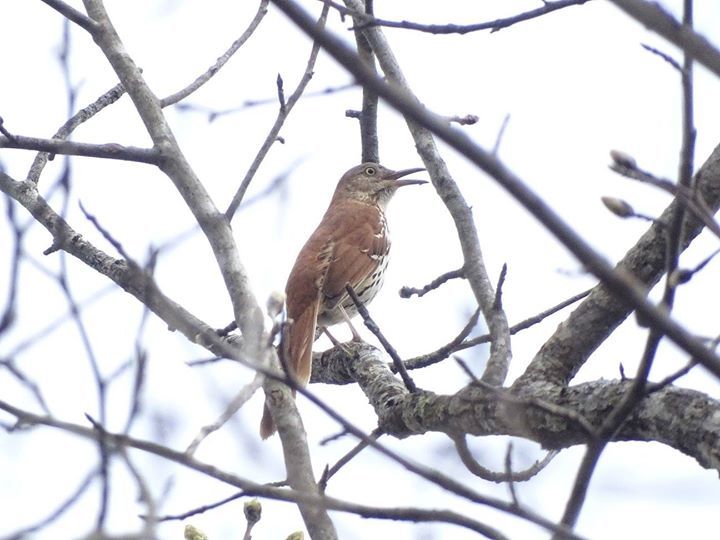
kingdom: Animalia
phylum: Chordata
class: Aves
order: Passeriformes
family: Mimidae
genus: Toxostoma
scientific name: Toxostoma rufum
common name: Brown thrasher
